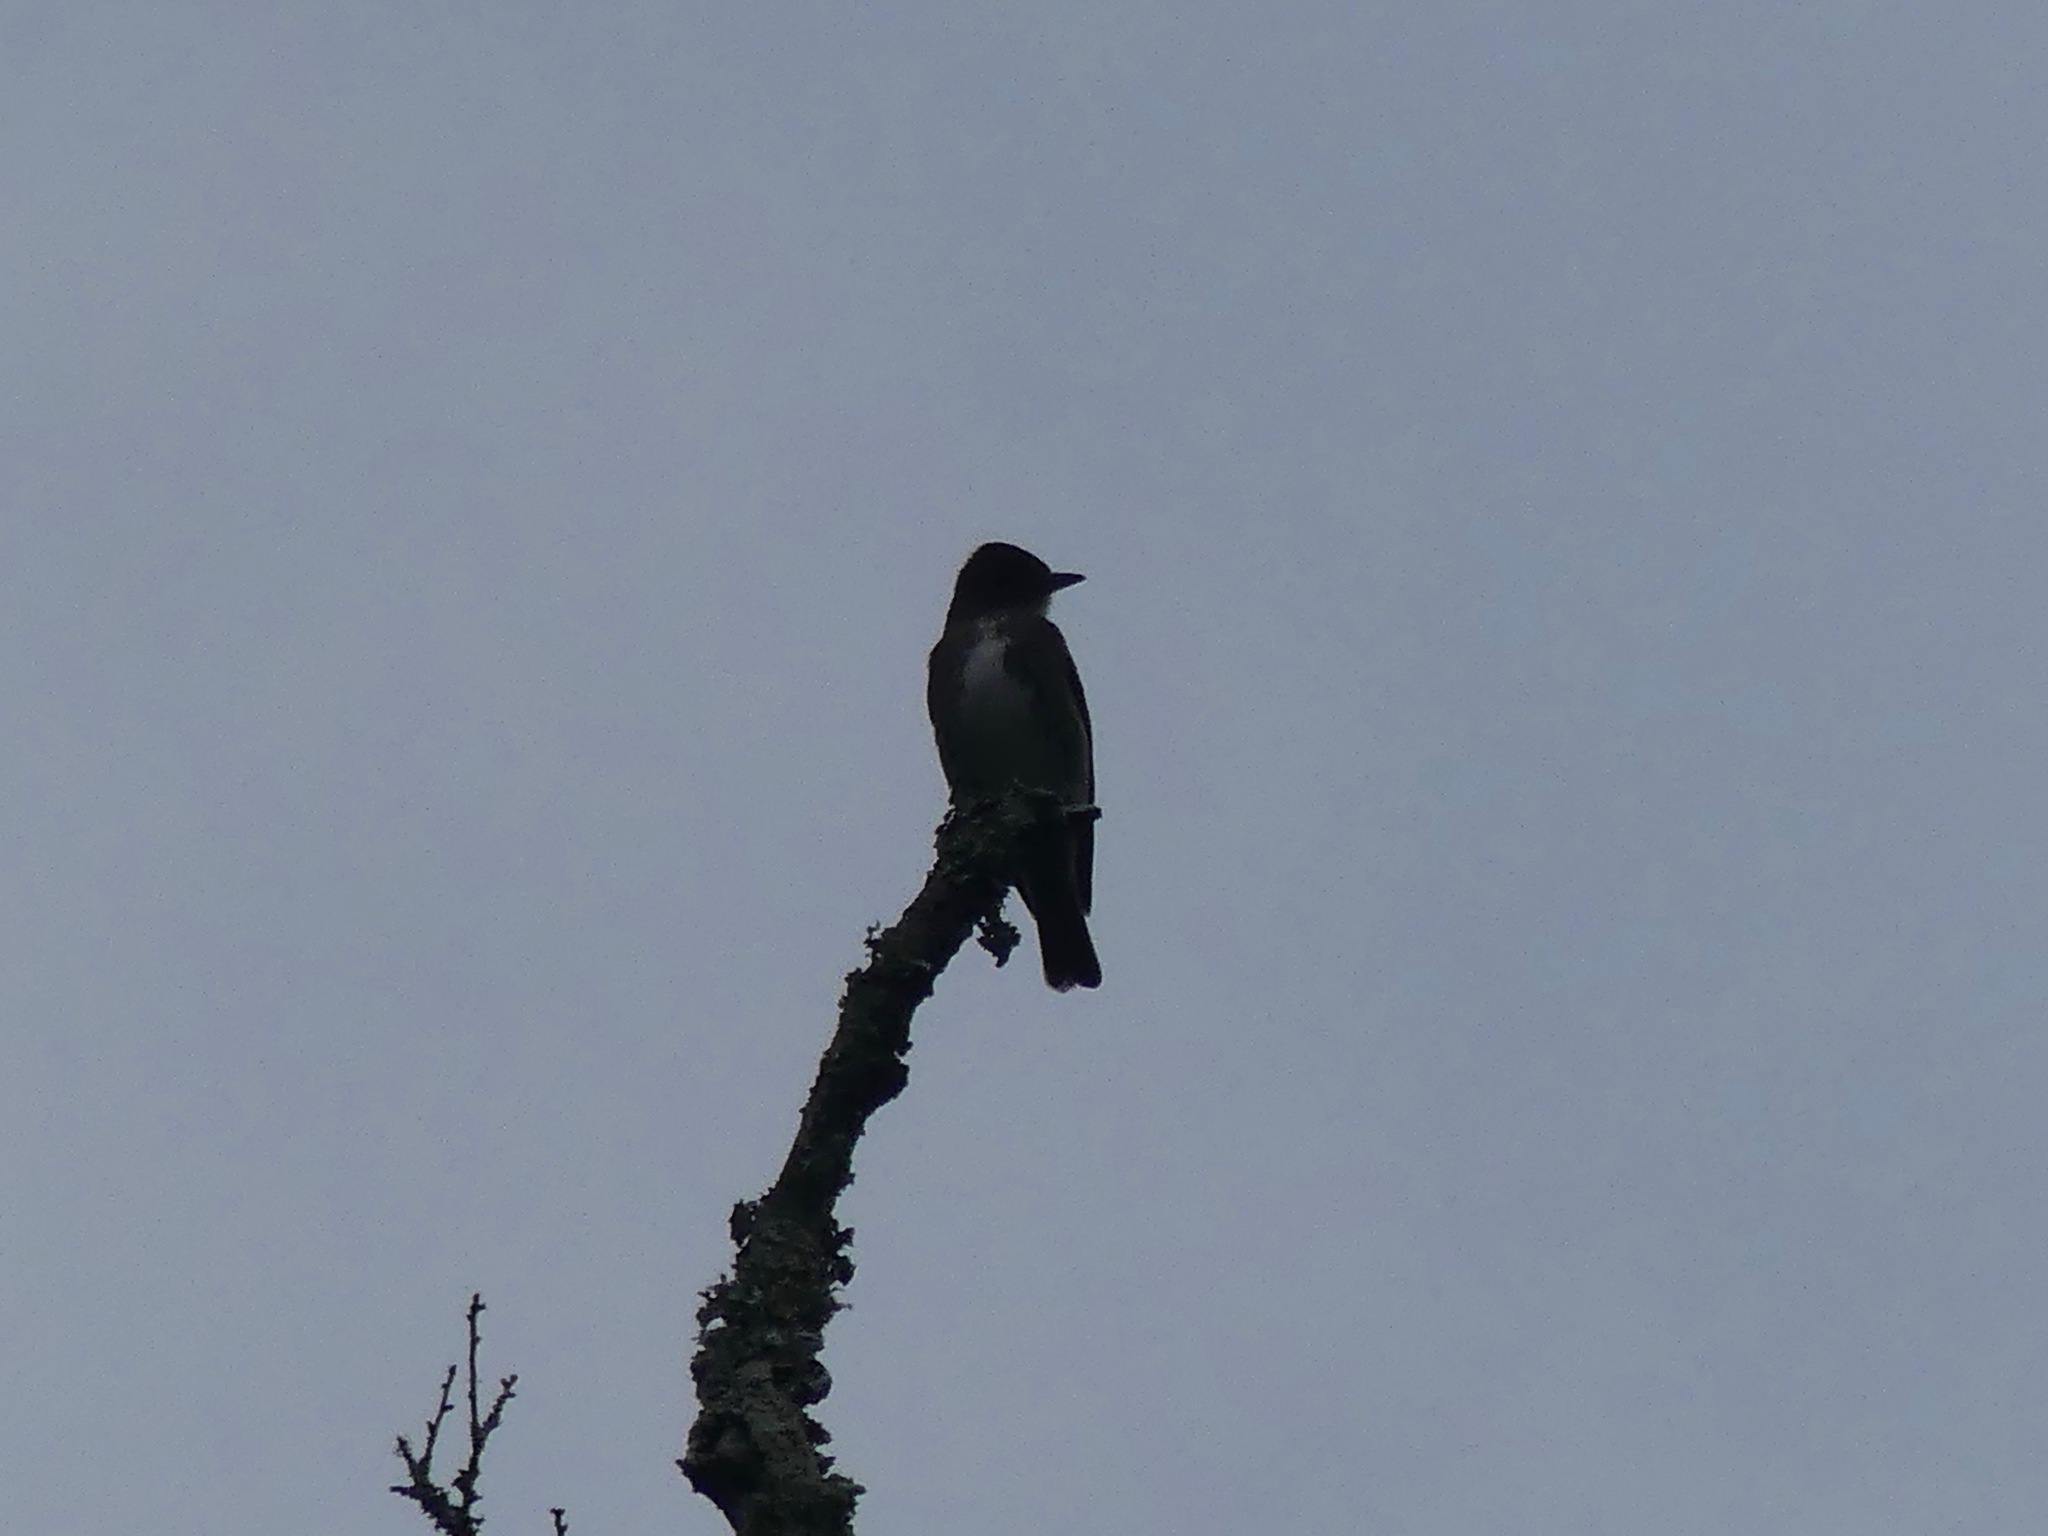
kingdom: Animalia
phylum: Chordata
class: Aves
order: Passeriformes
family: Tyrannidae
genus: Contopus
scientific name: Contopus cooperi
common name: Olive-sided flycatcher
